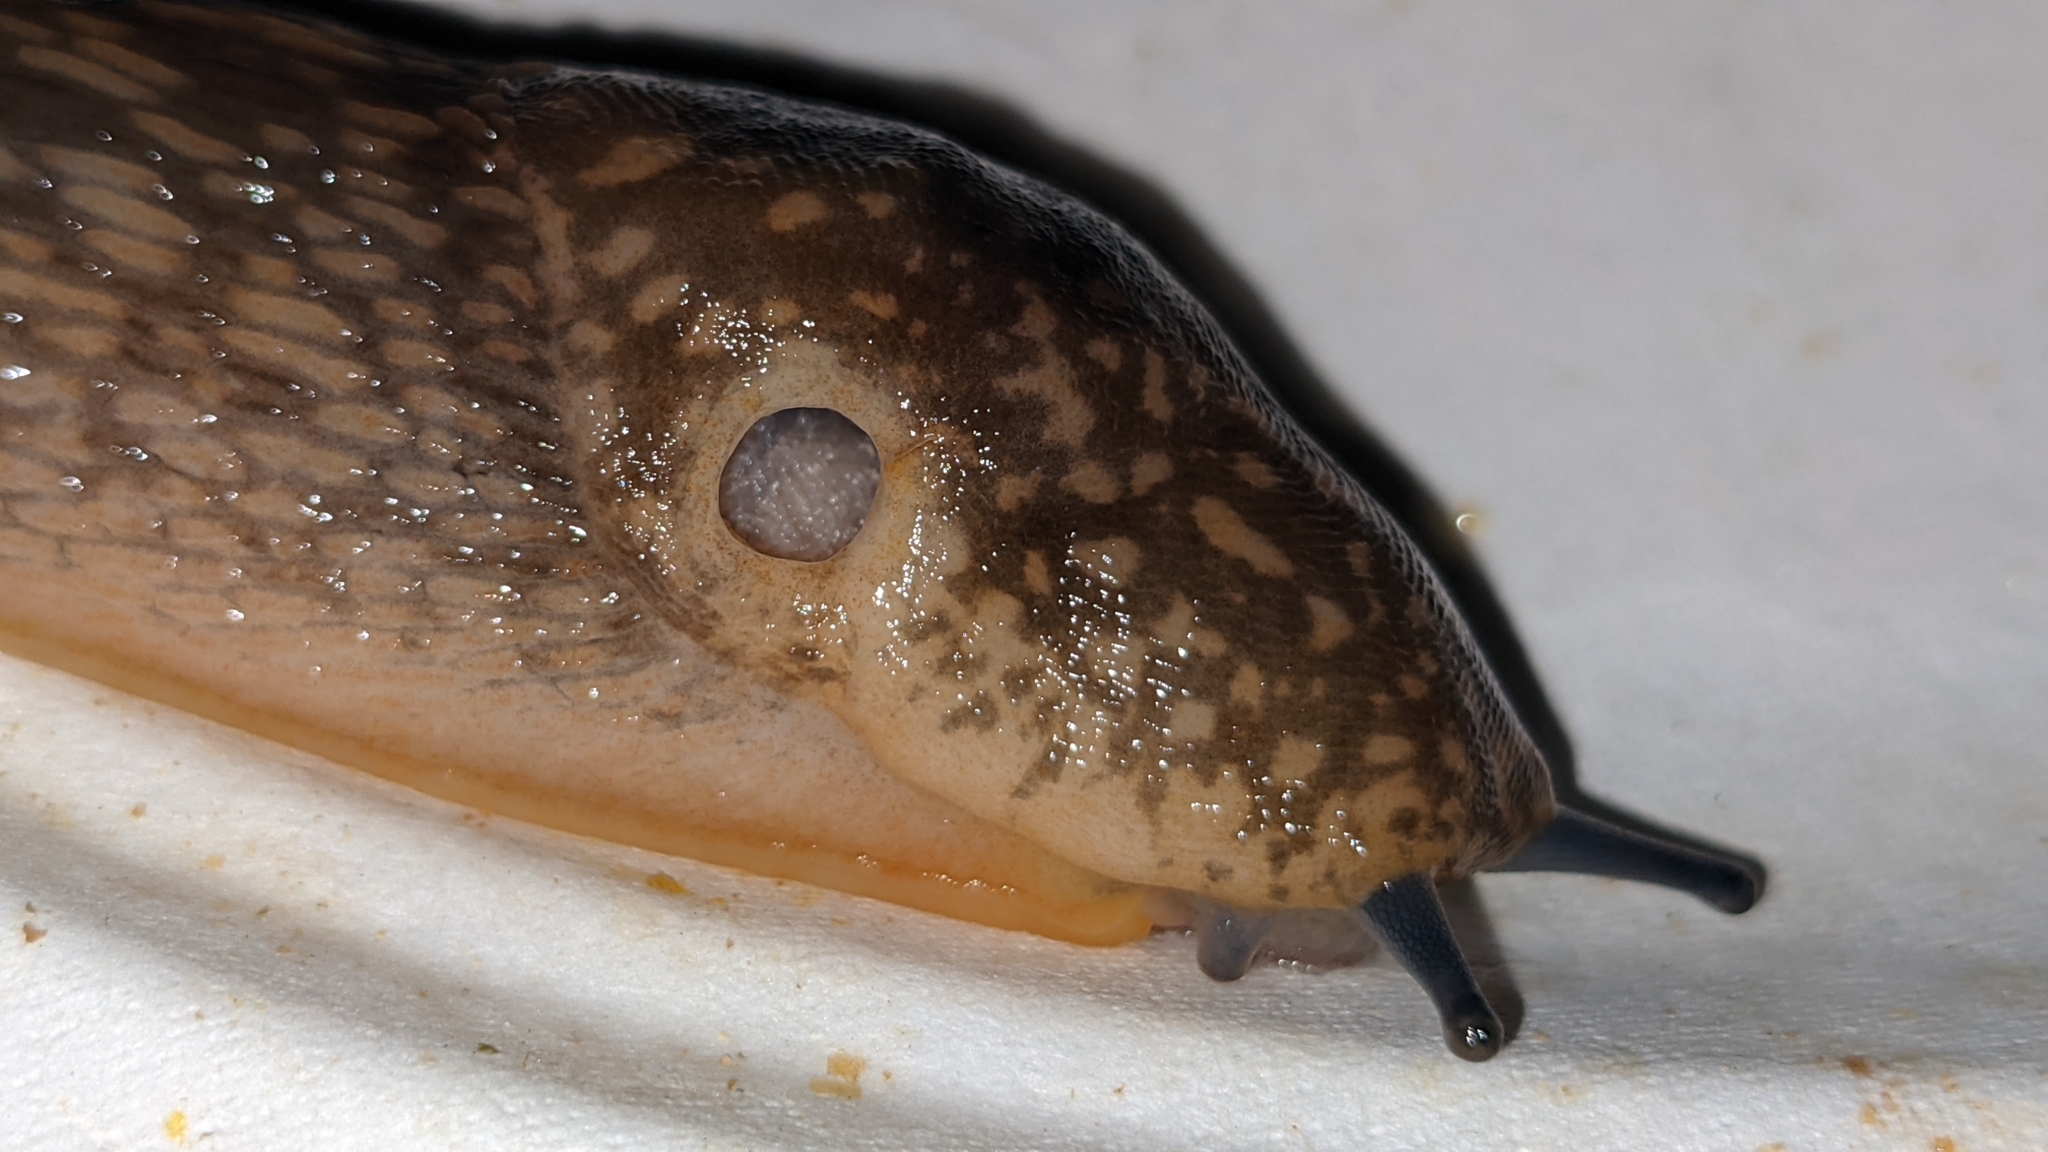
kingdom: Animalia
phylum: Mollusca
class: Gastropoda
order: Stylommatophora
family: Limacidae
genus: Limacus
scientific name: Limacus flavus
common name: Yellow gardenslug
